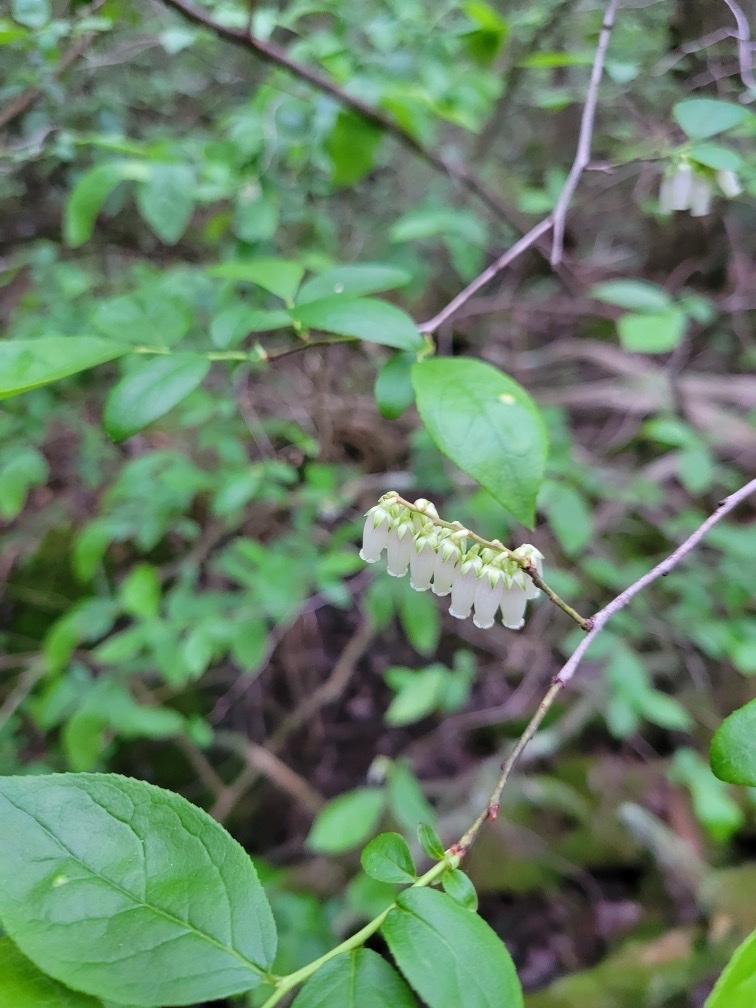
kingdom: Plantae
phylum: Tracheophyta
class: Magnoliopsida
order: Ericales
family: Ericaceae
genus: Eubotrys
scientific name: Eubotrys racemosa
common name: Fetterbush
